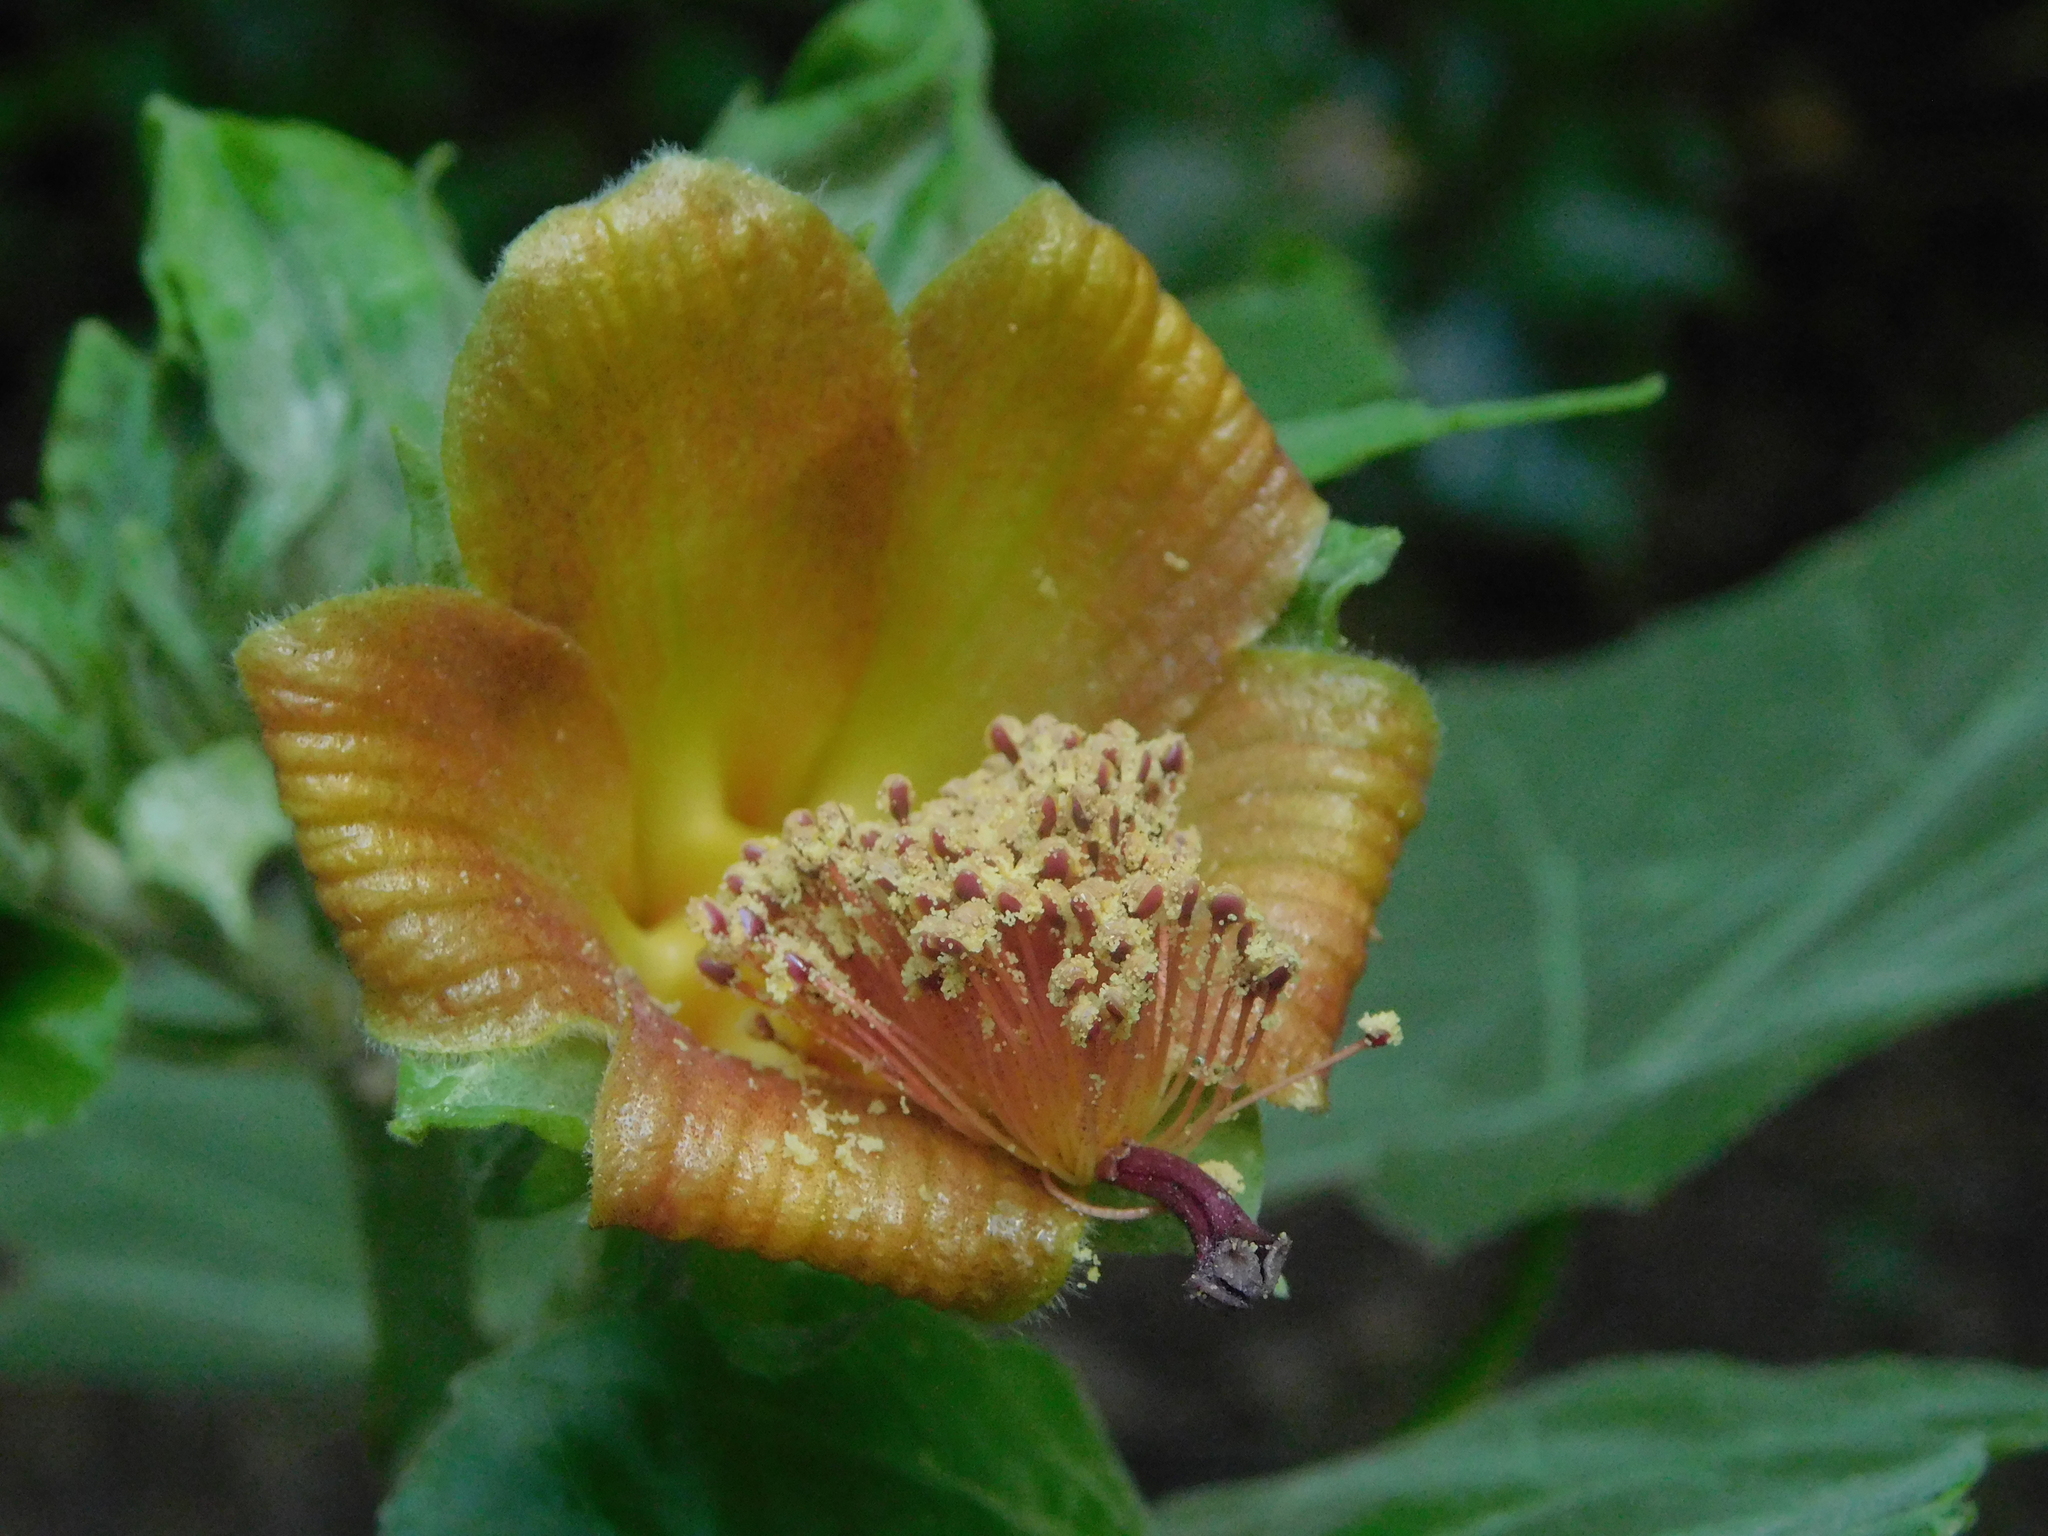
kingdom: Plantae
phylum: Tracheophyta
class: Magnoliopsida
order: Malvales
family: Malvaceae
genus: Hibiscus
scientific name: Hibiscus clypeatus
